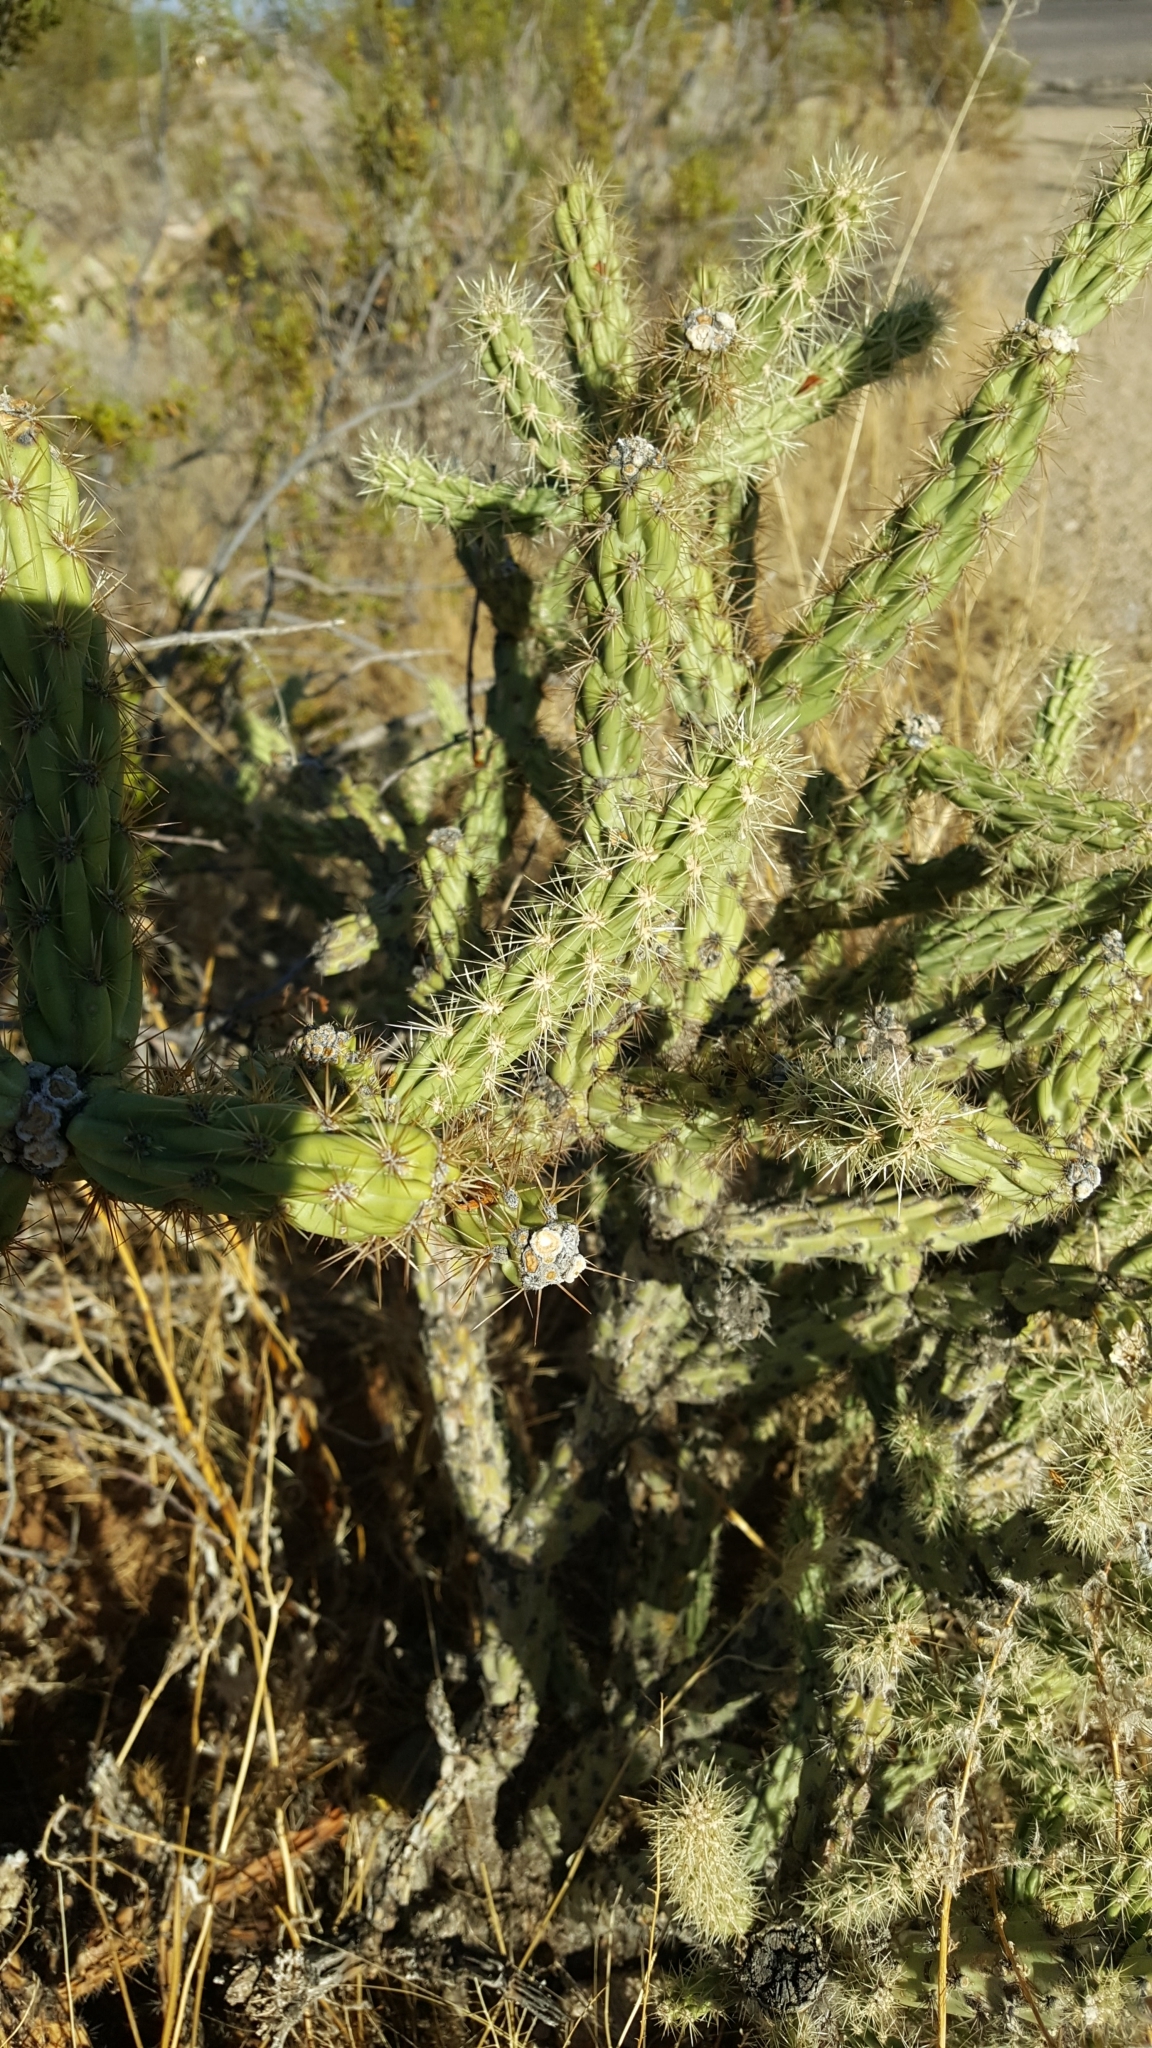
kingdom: Plantae
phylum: Tracheophyta
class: Magnoliopsida
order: Caryophyllales
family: Cactaceae
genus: Cylindropuntia
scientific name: Cylindropuntia acanthocarpa
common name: Buckhorn cholla
